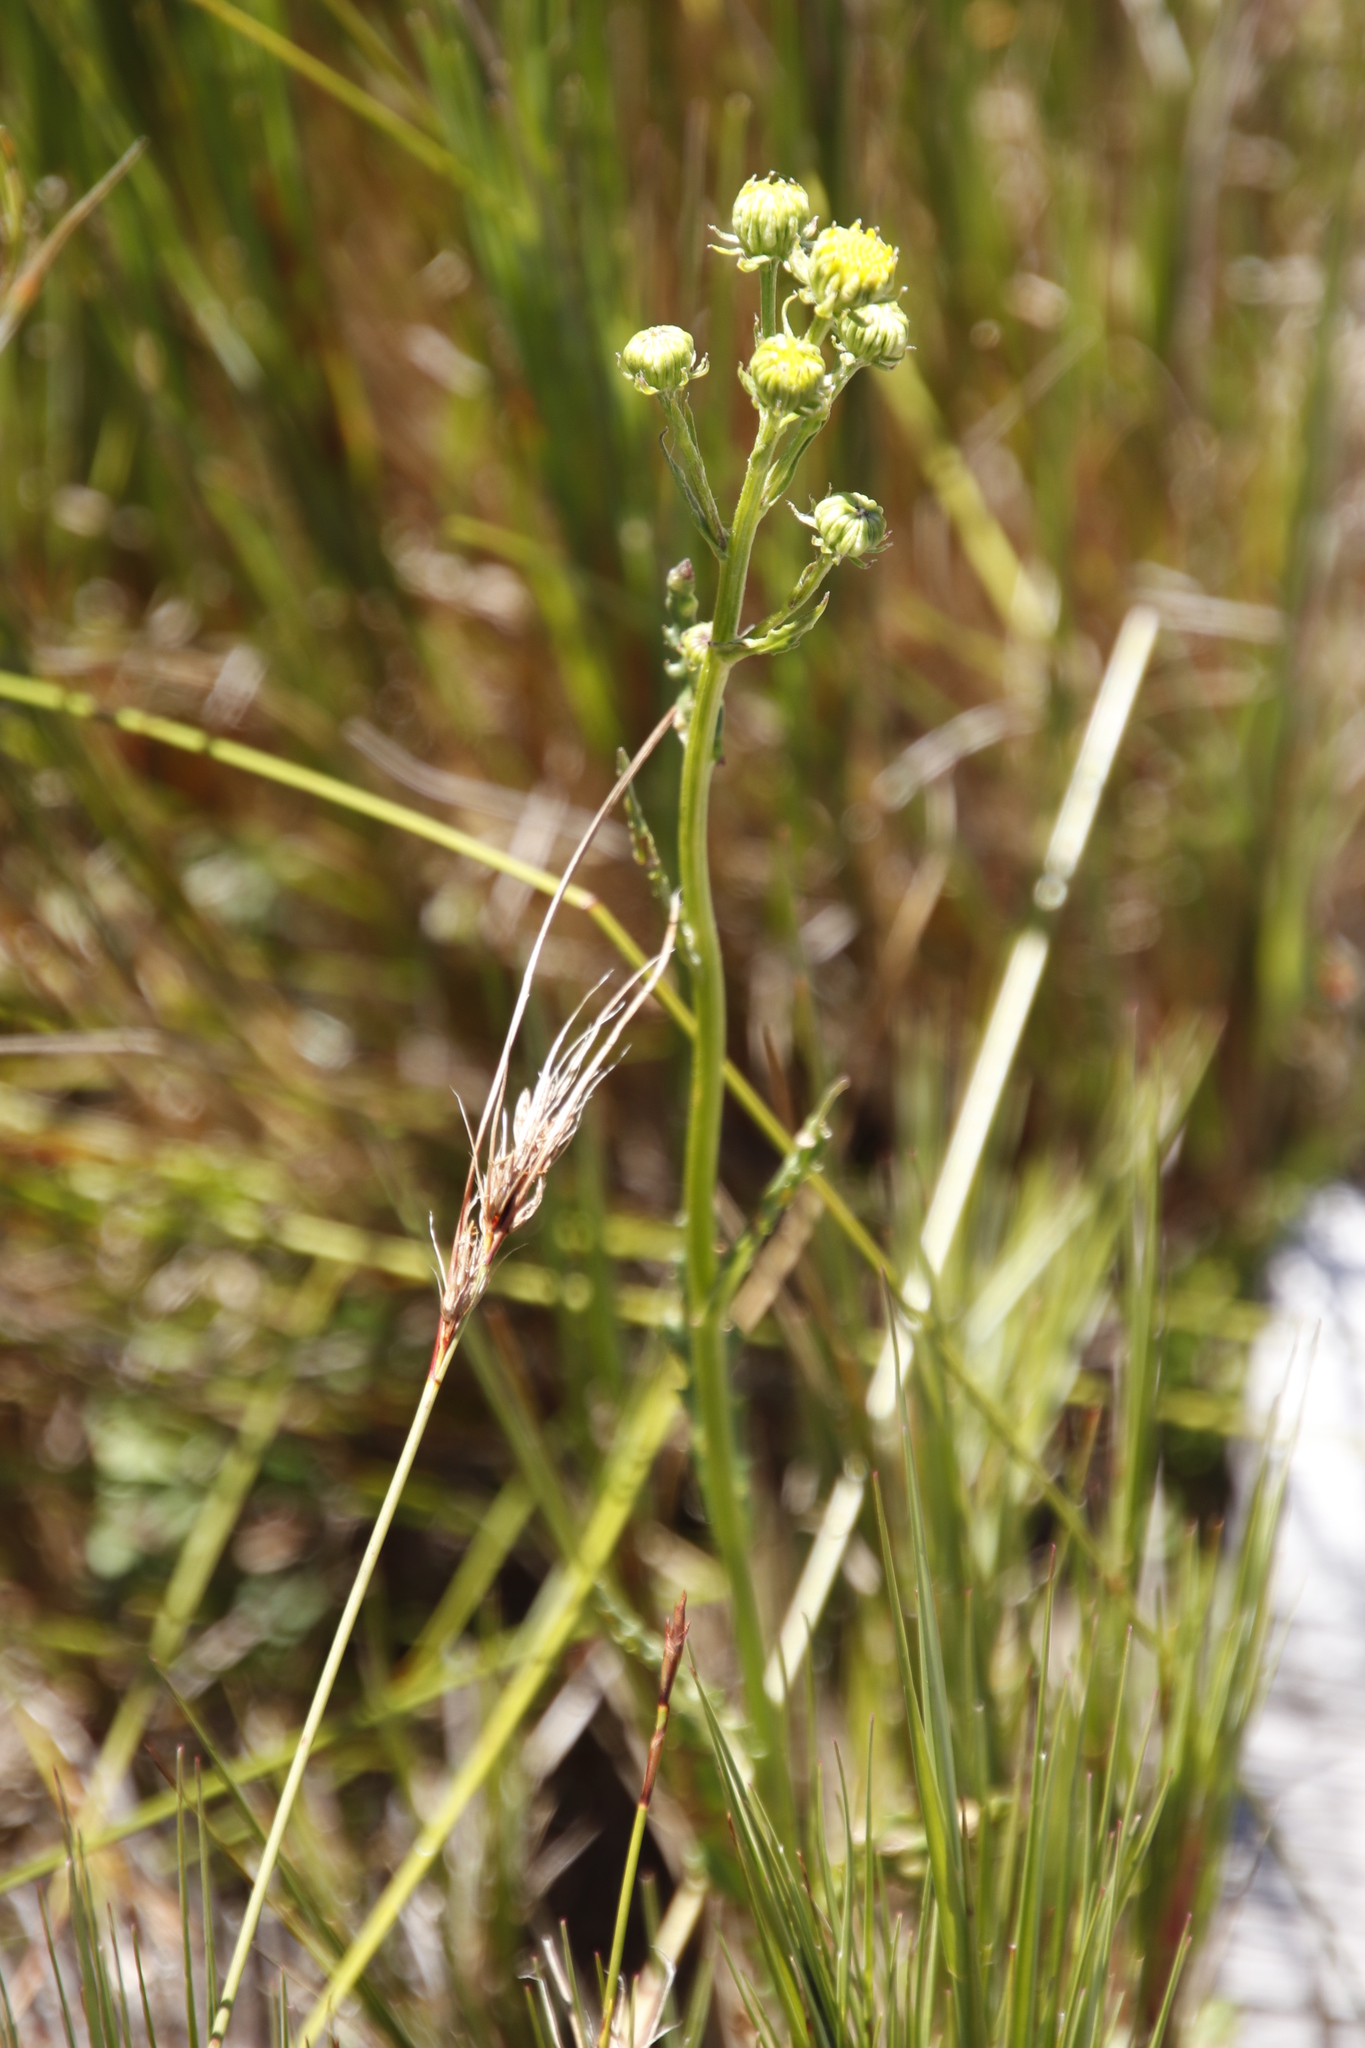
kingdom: Plantae
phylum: Tracheophyta
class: Magnoliopsida
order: Asterales
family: Asteraceae
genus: Senecio
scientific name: Senecio crispus
